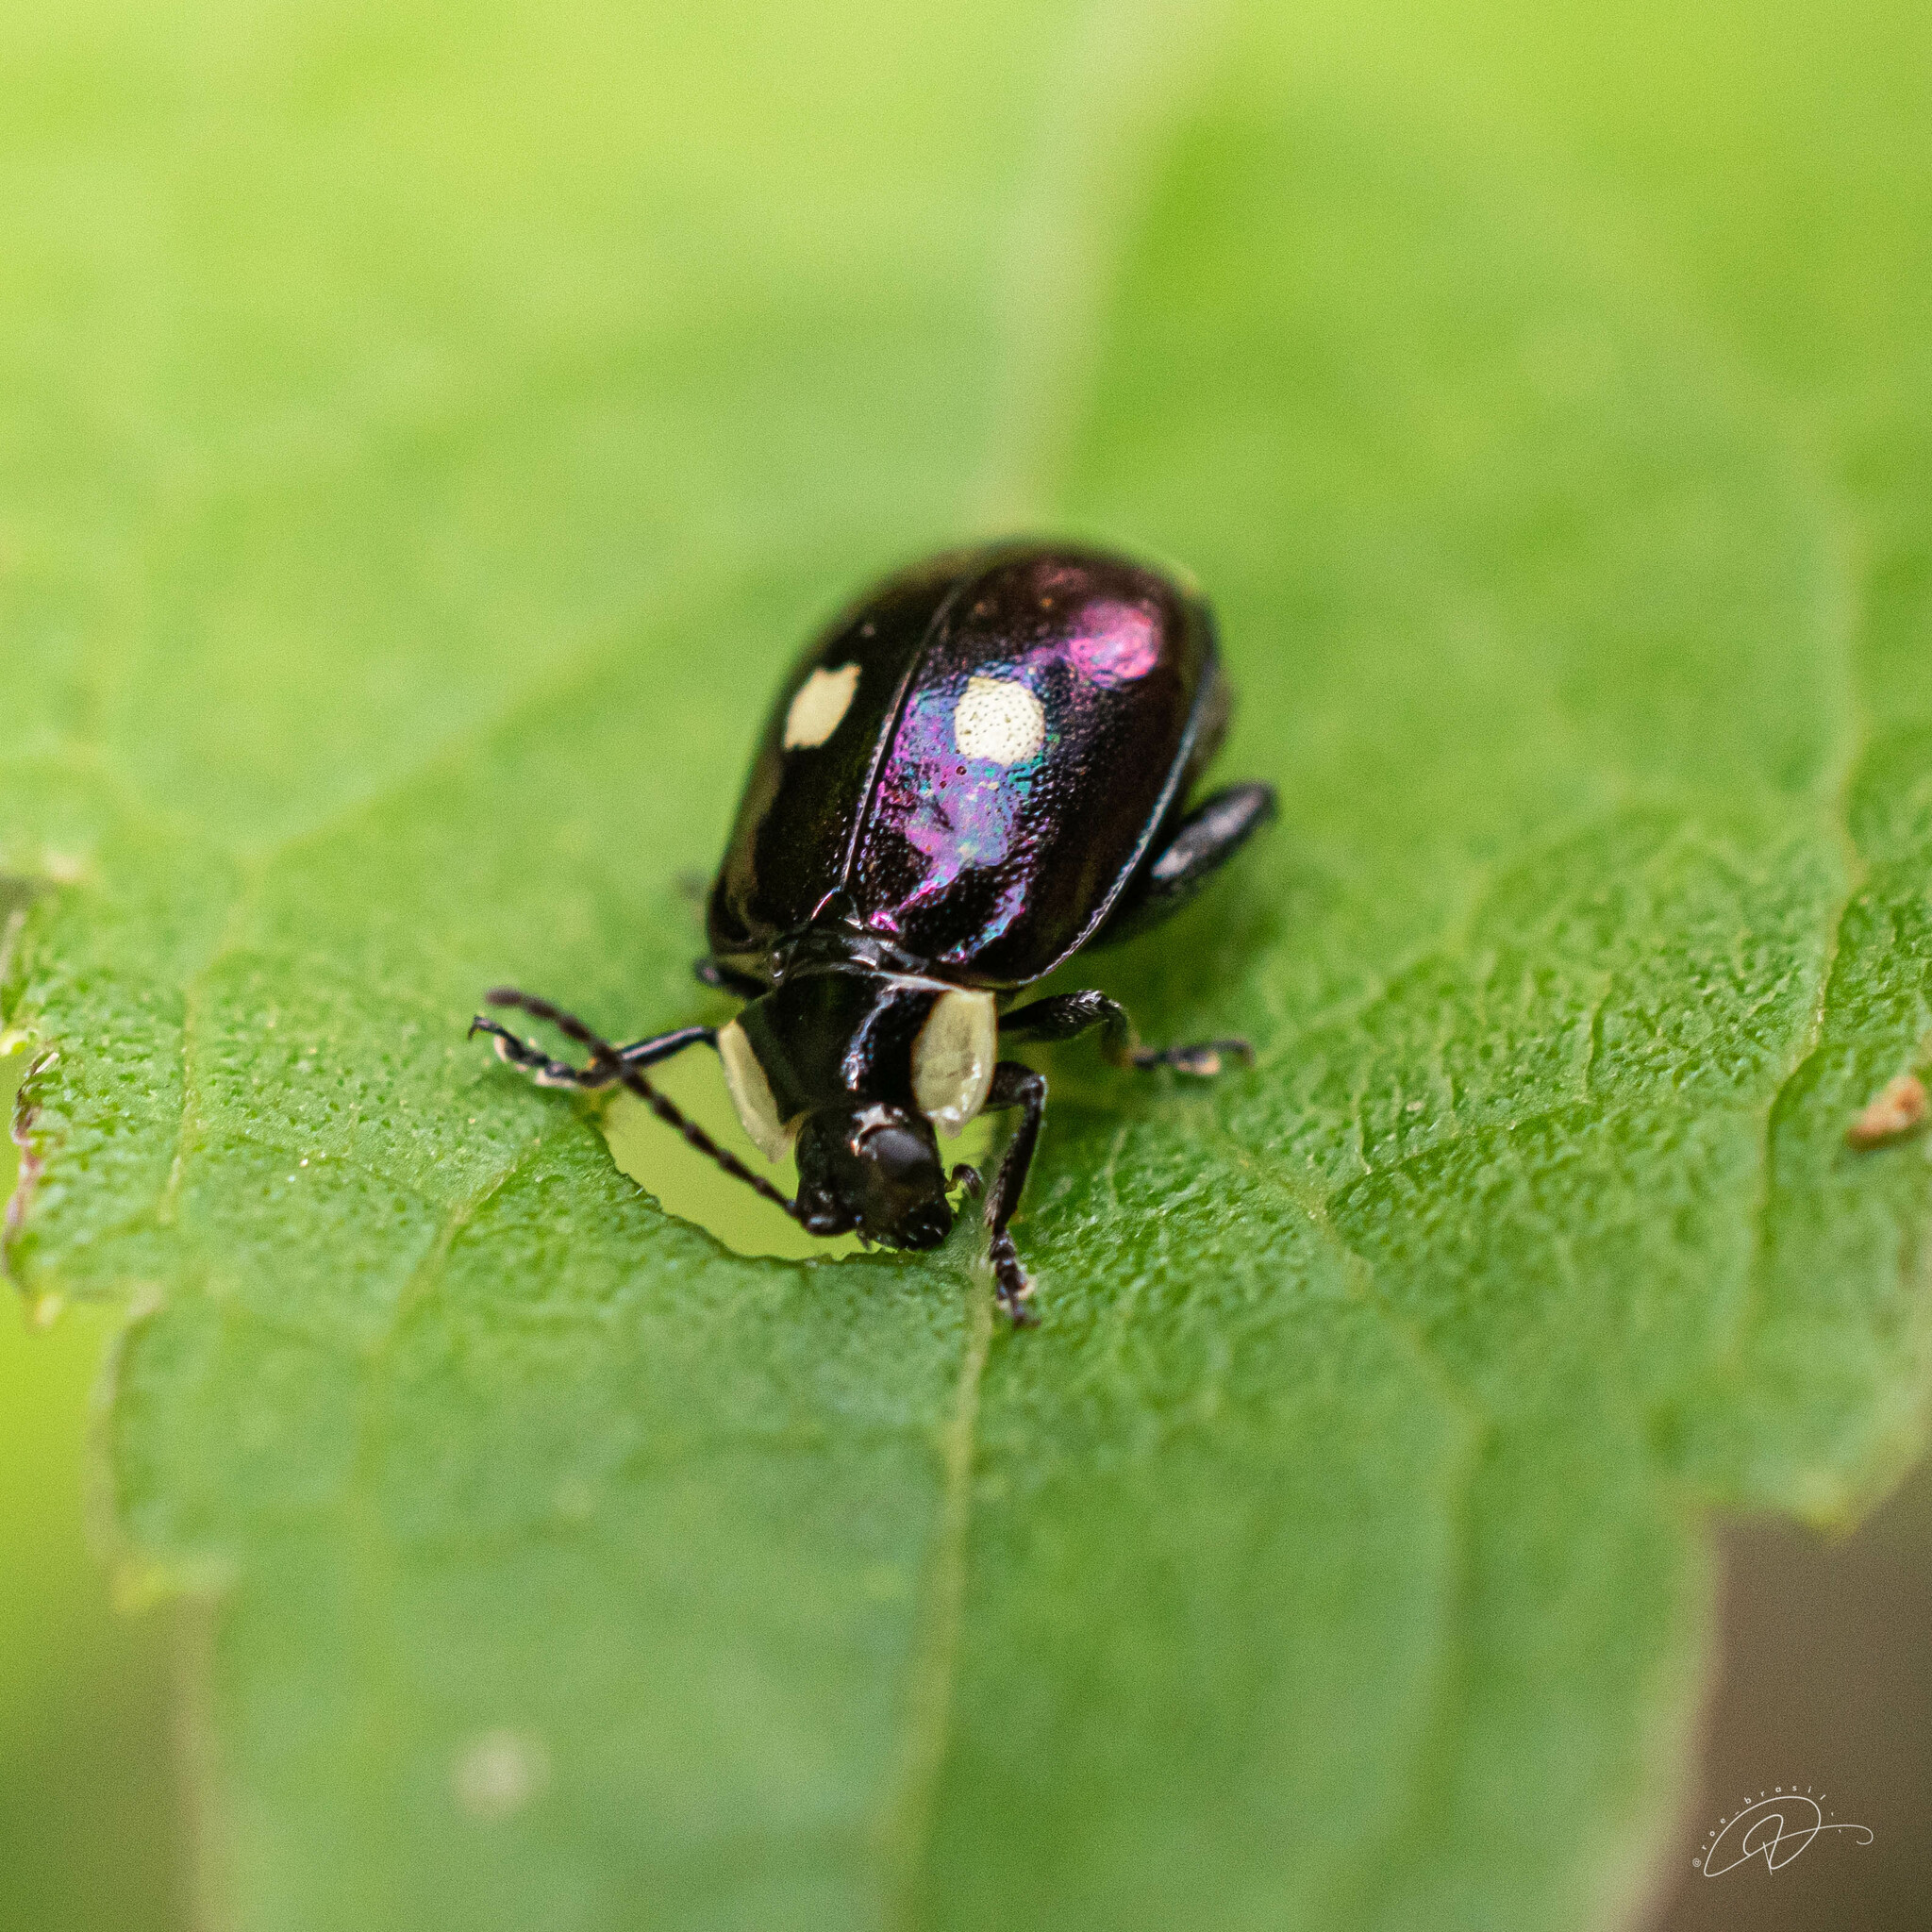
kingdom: Animalia
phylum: Arthropoda
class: Insecta
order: Coleoptera
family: Chrysomelidae
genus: Alagoasa
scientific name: Alagoasa
